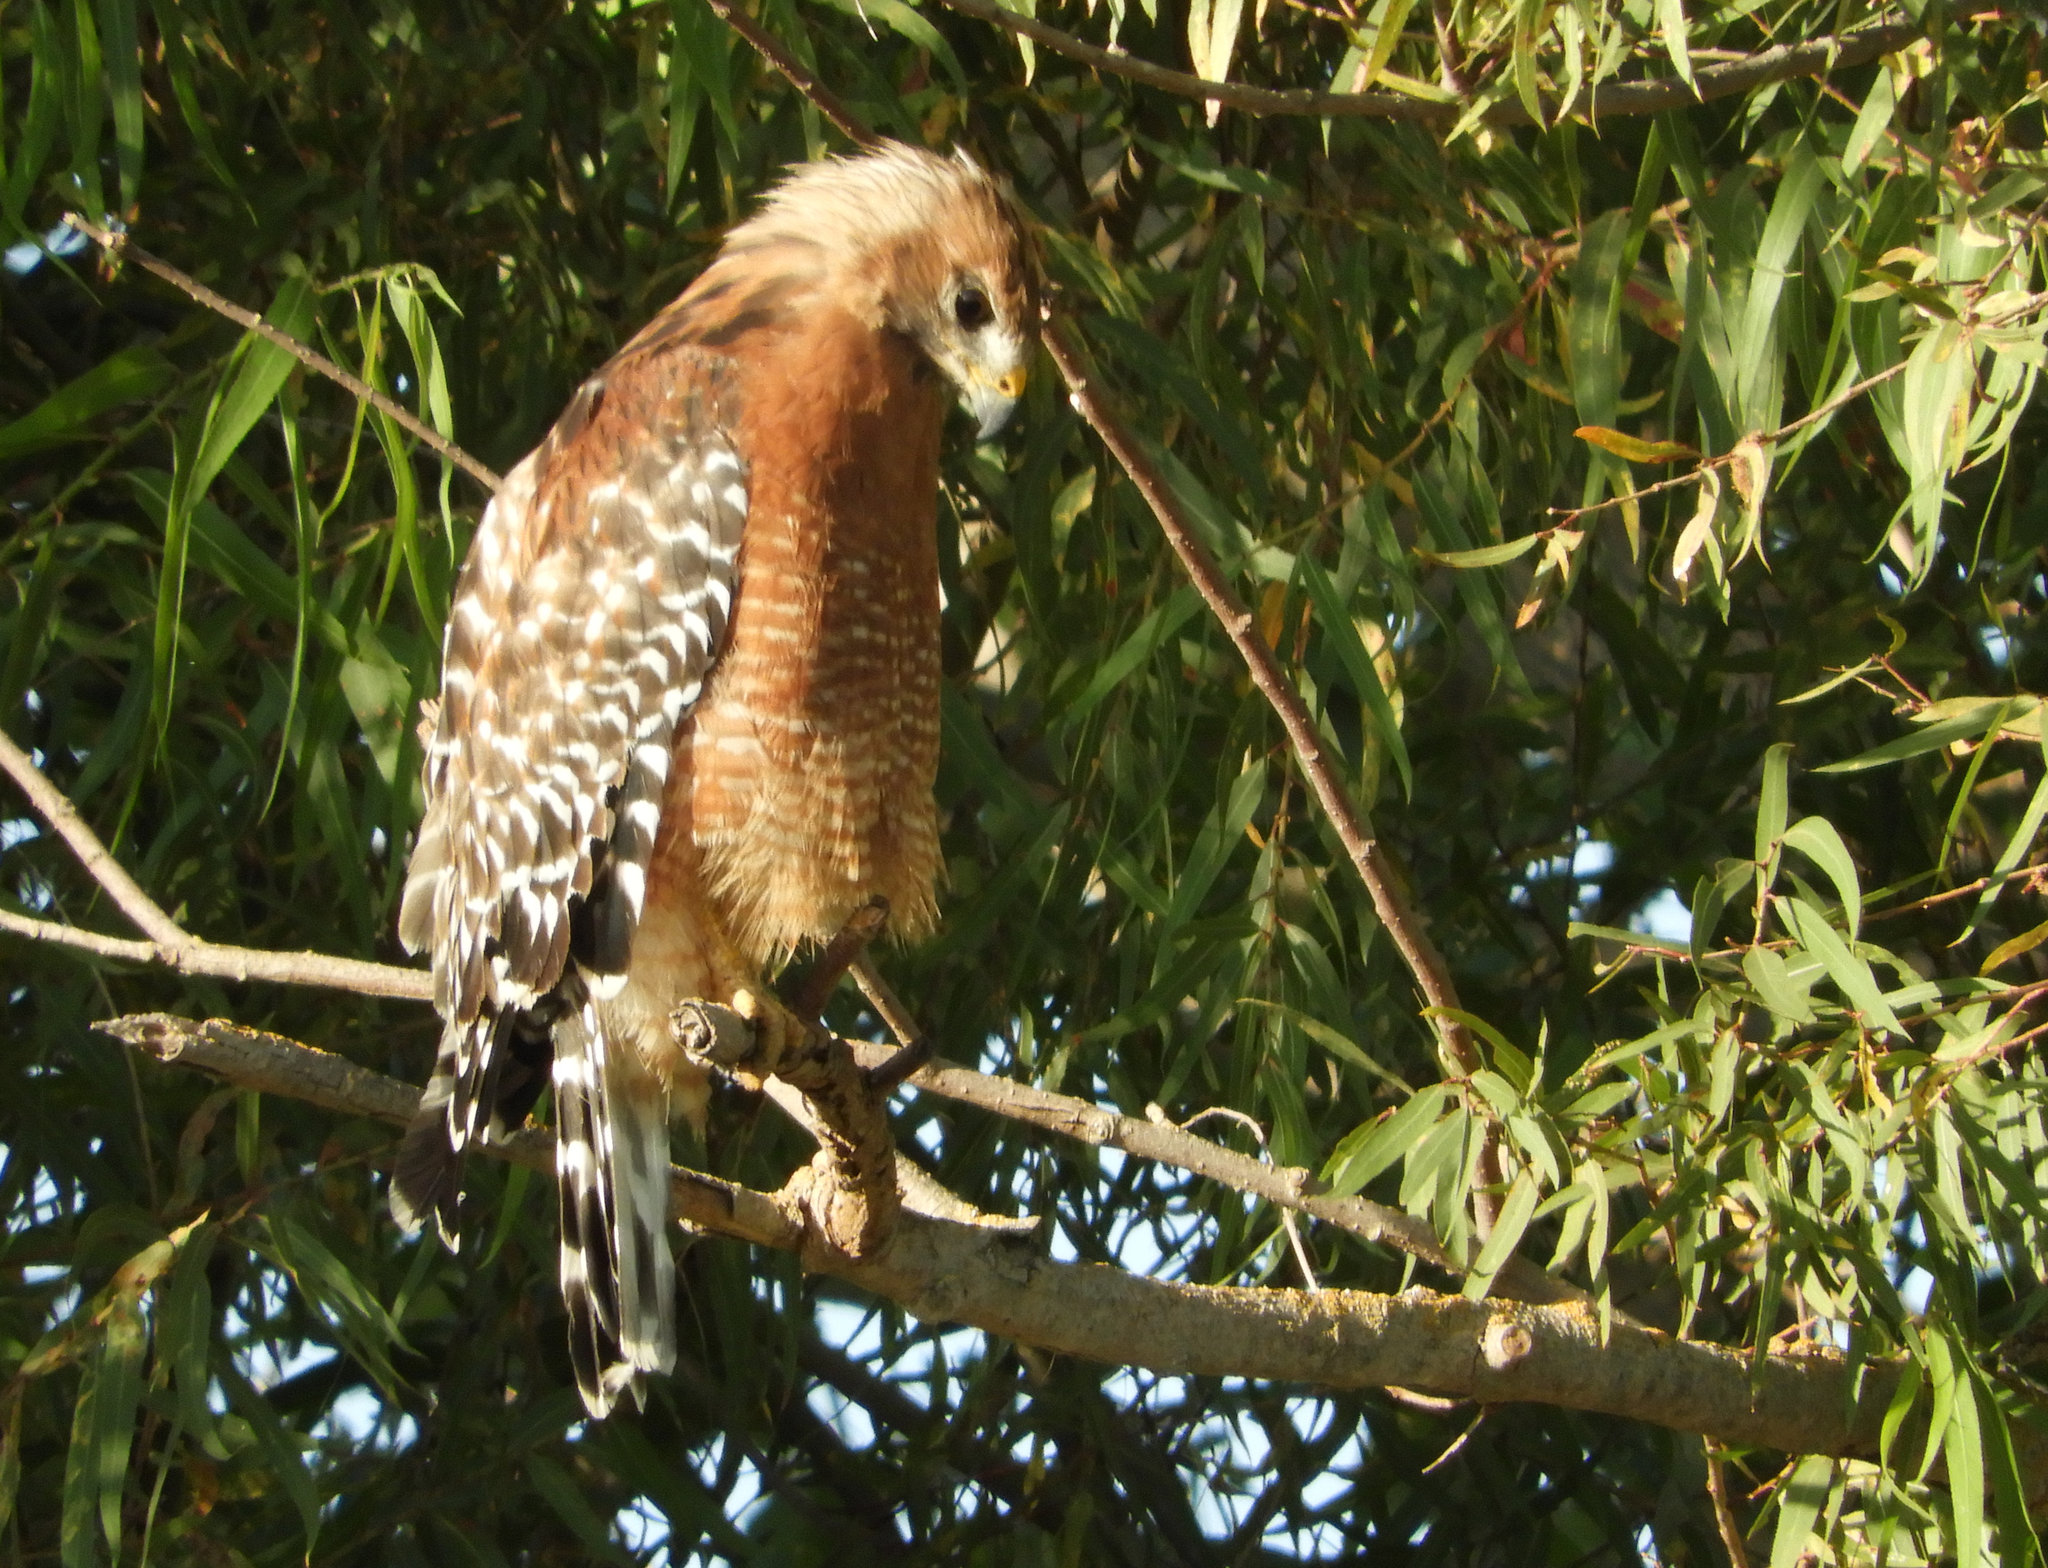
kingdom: Animalia
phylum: Chordata
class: Aves
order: Accipitriformes
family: Accipitridae
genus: Buteo
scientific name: Buteo lineatus
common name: Red-shouldered hawk
